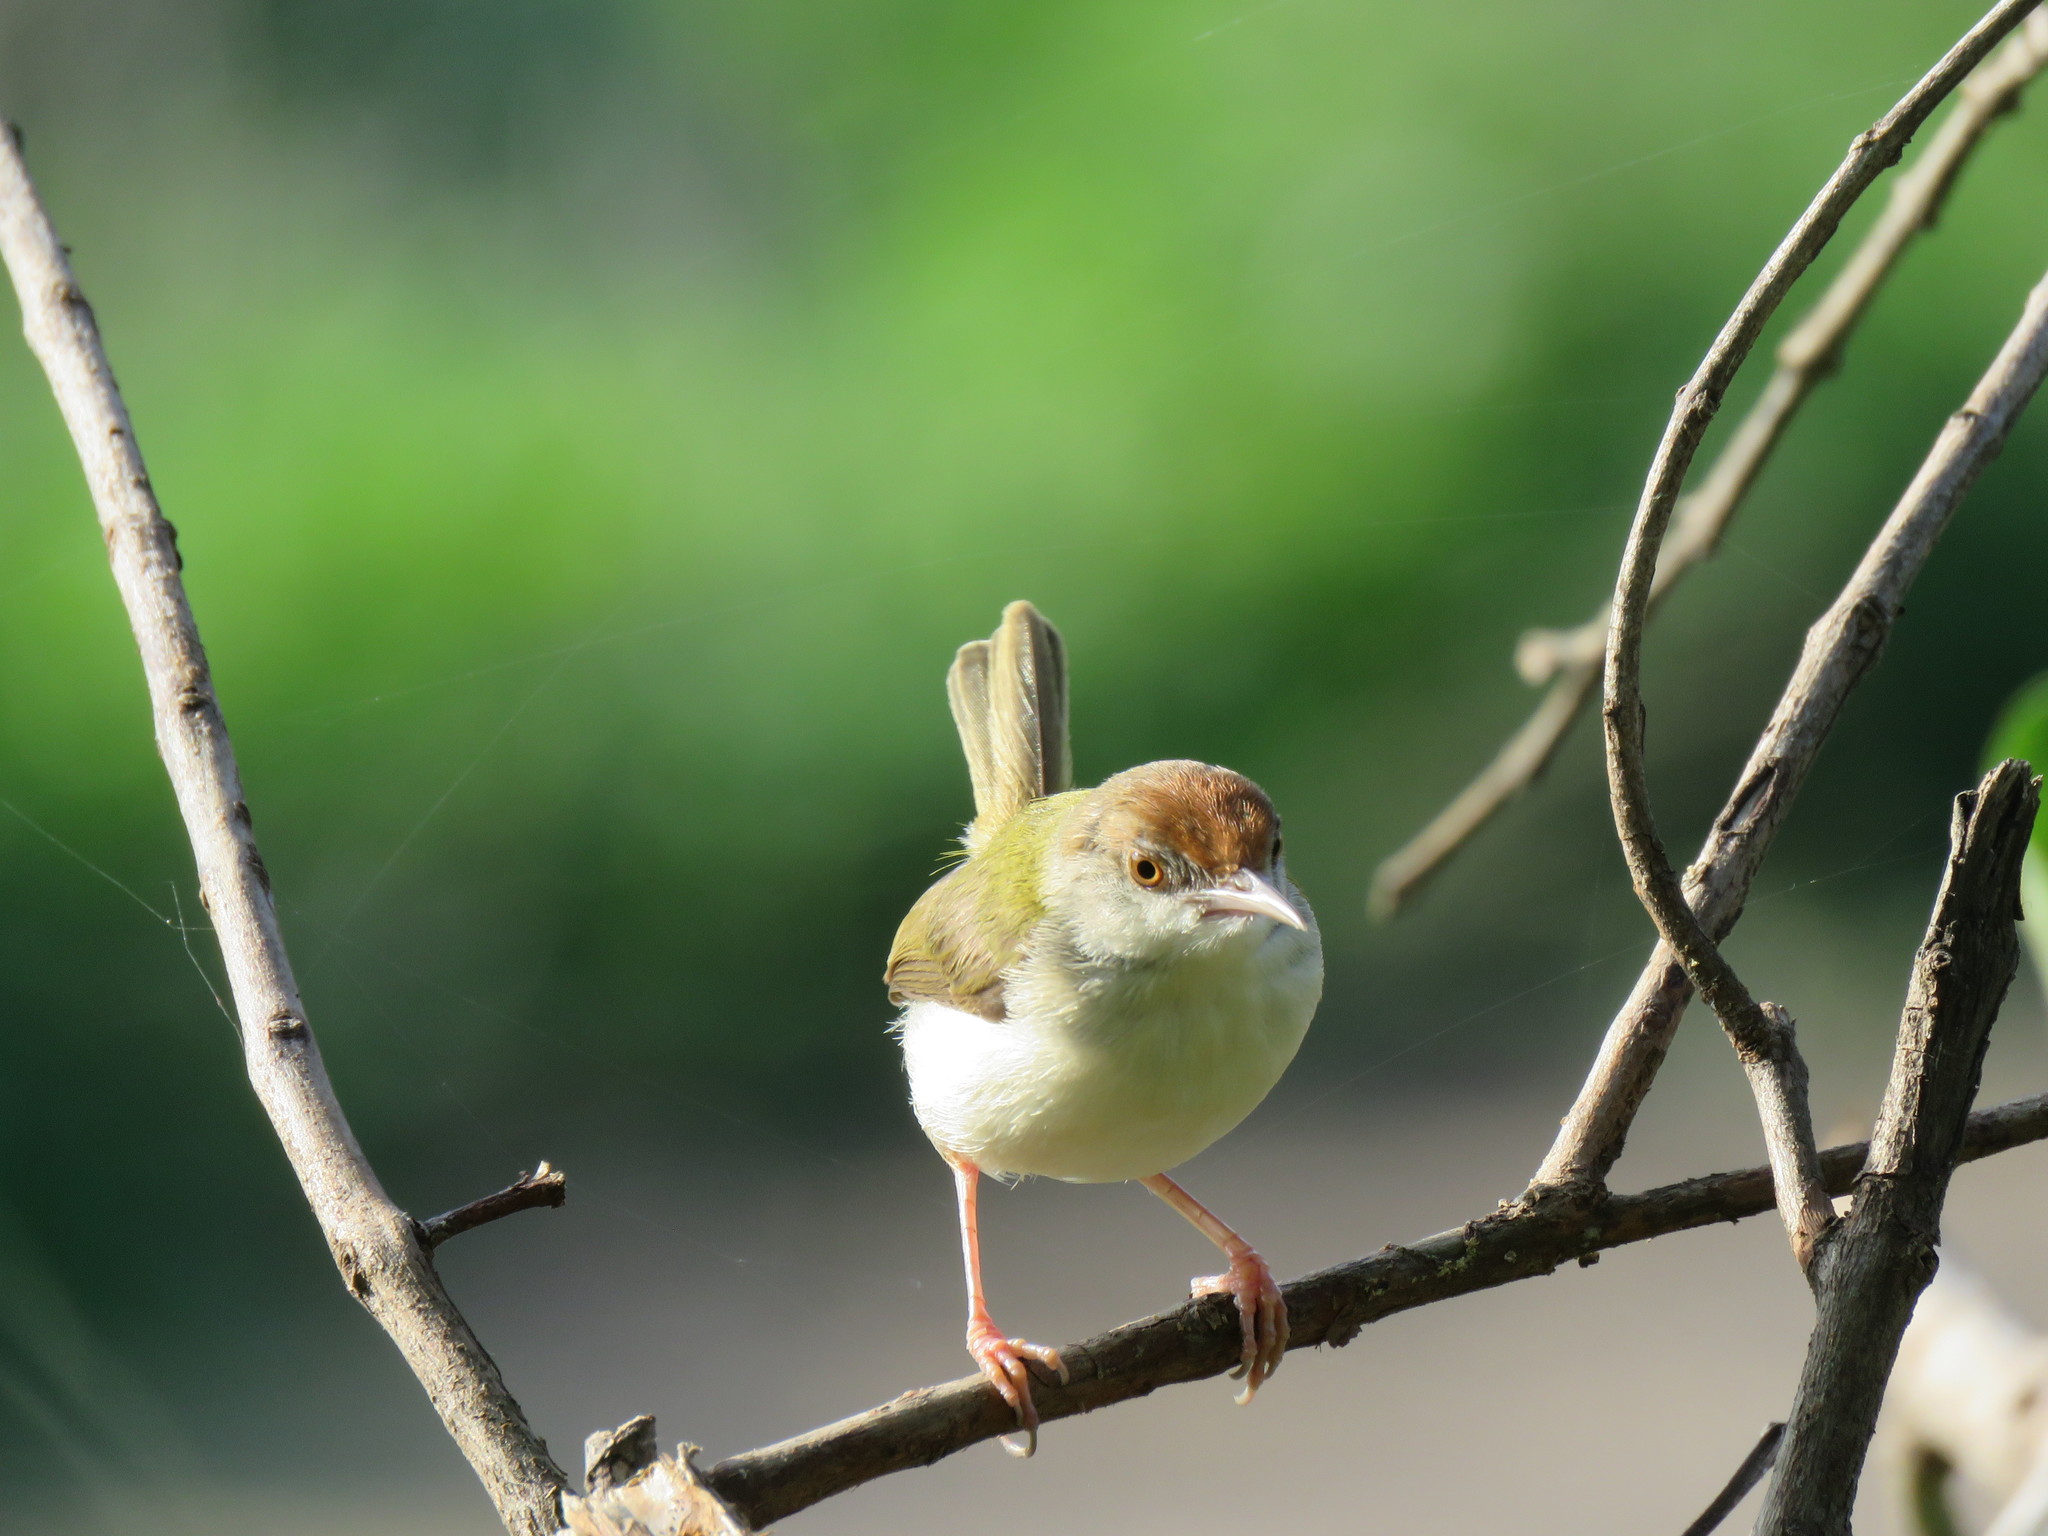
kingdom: Animalia
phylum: Chordata
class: Aves
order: Passeriformes
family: Cisticolidae
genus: Orthotomus
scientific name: Orthotomus sutorius
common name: Common tailorbird
